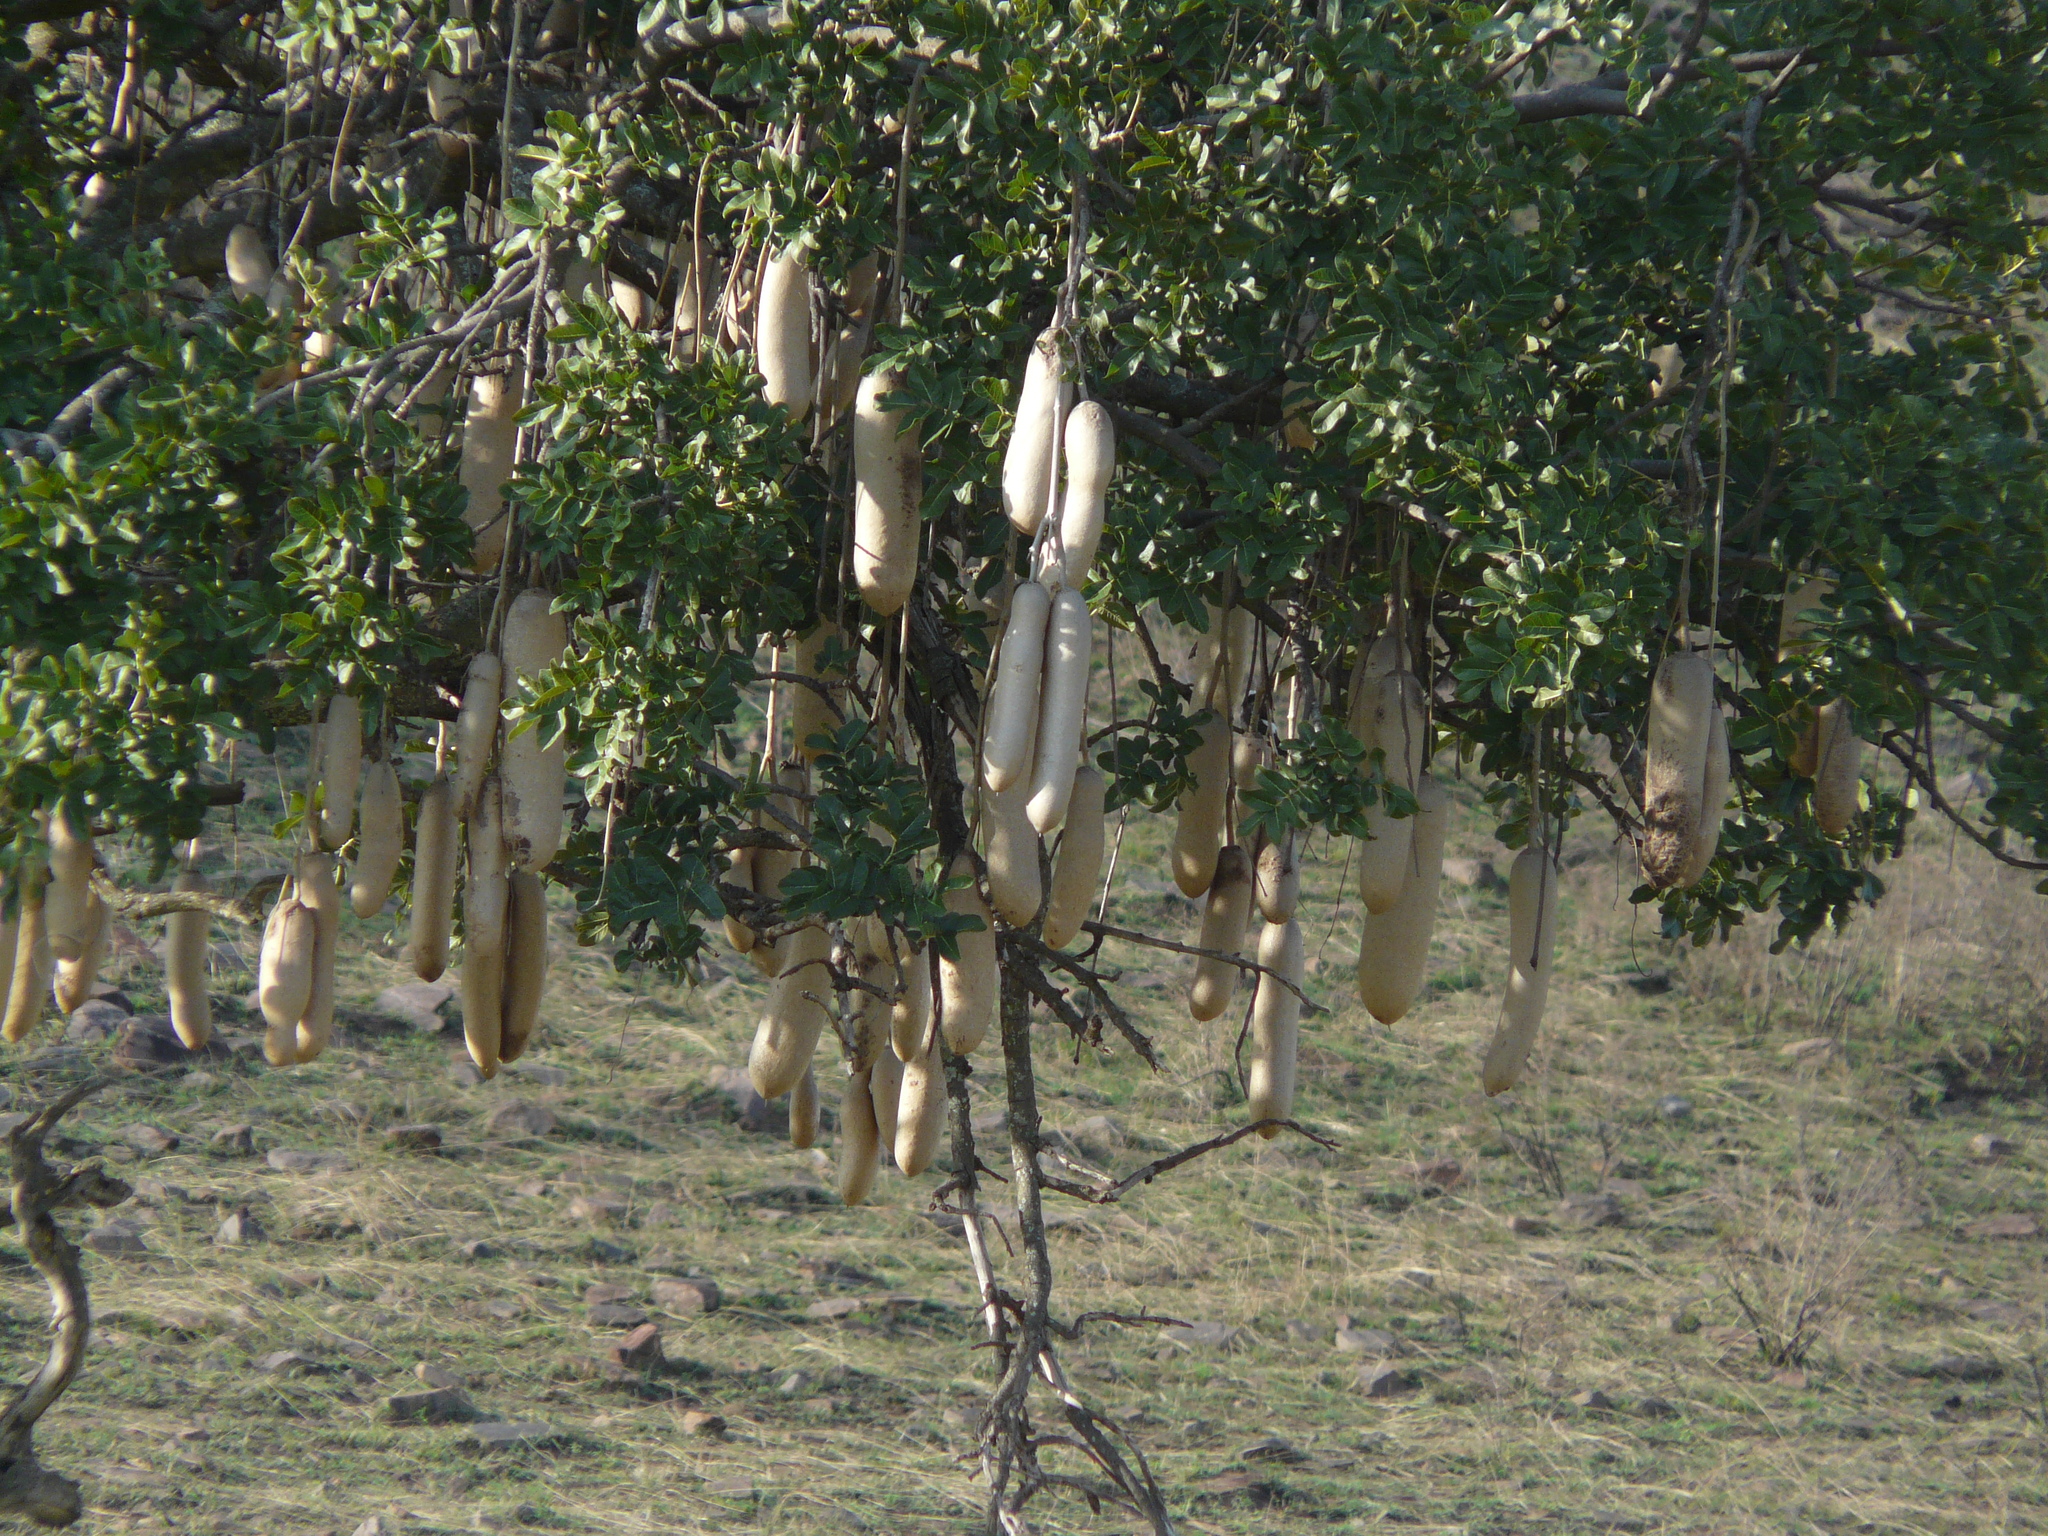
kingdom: Plantae
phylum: Tracheophyta
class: Magnoliopsida
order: Lamiales
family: Bignoniaceae
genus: Kigelia
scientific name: Kigelia africana
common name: Sausage tree
